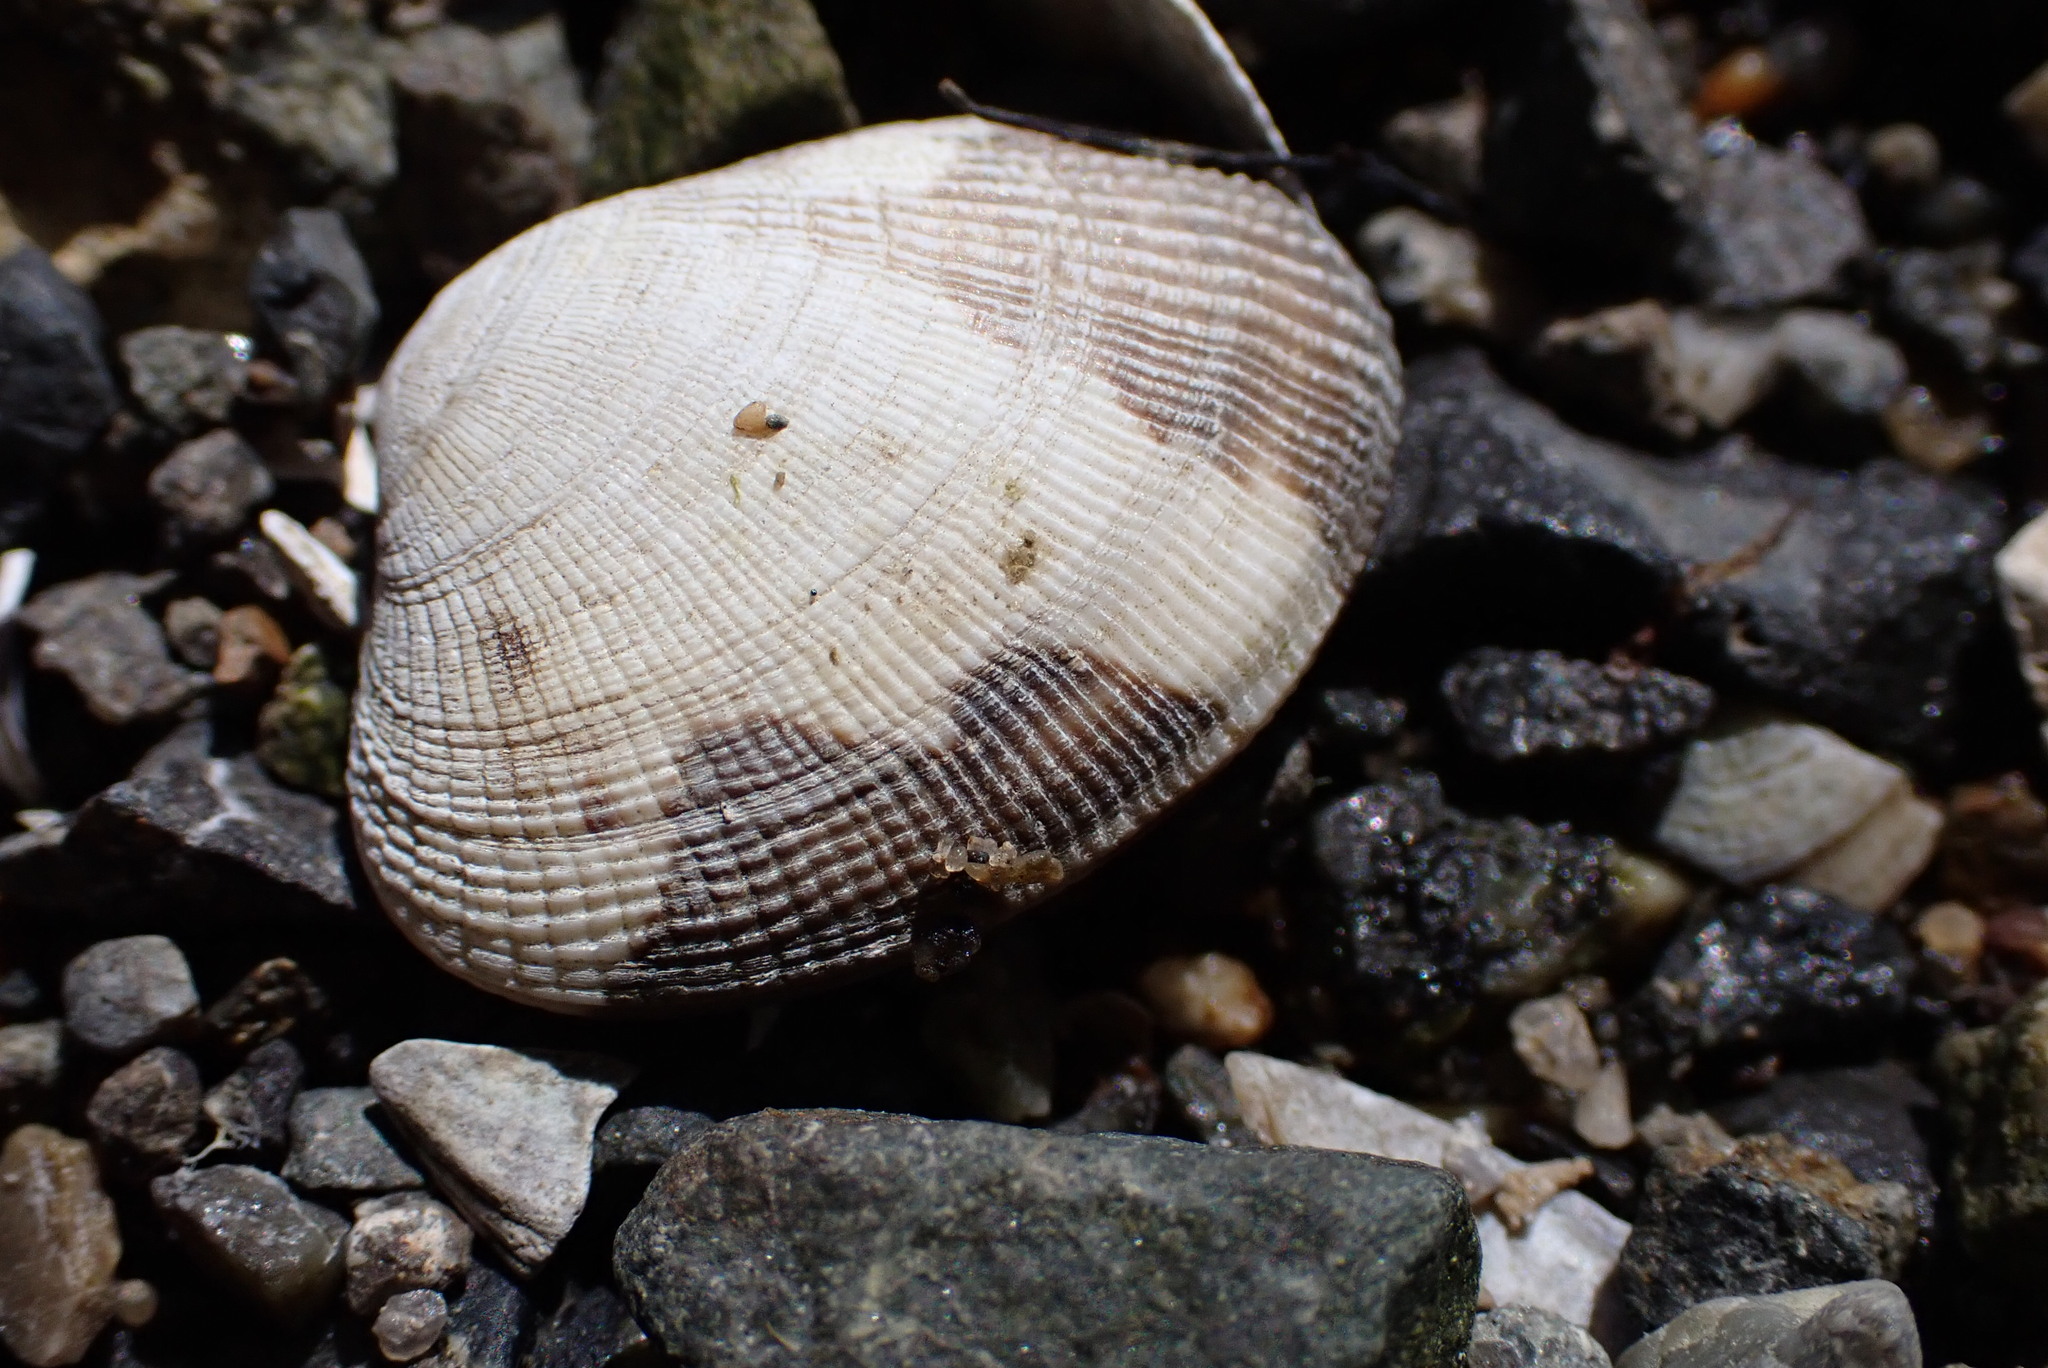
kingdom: Animalia
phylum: Mollusca
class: Bivalvia
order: Venerida
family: Veneridae
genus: Ruditapes
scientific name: Ruditapes philippinarum
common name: Manila clam
